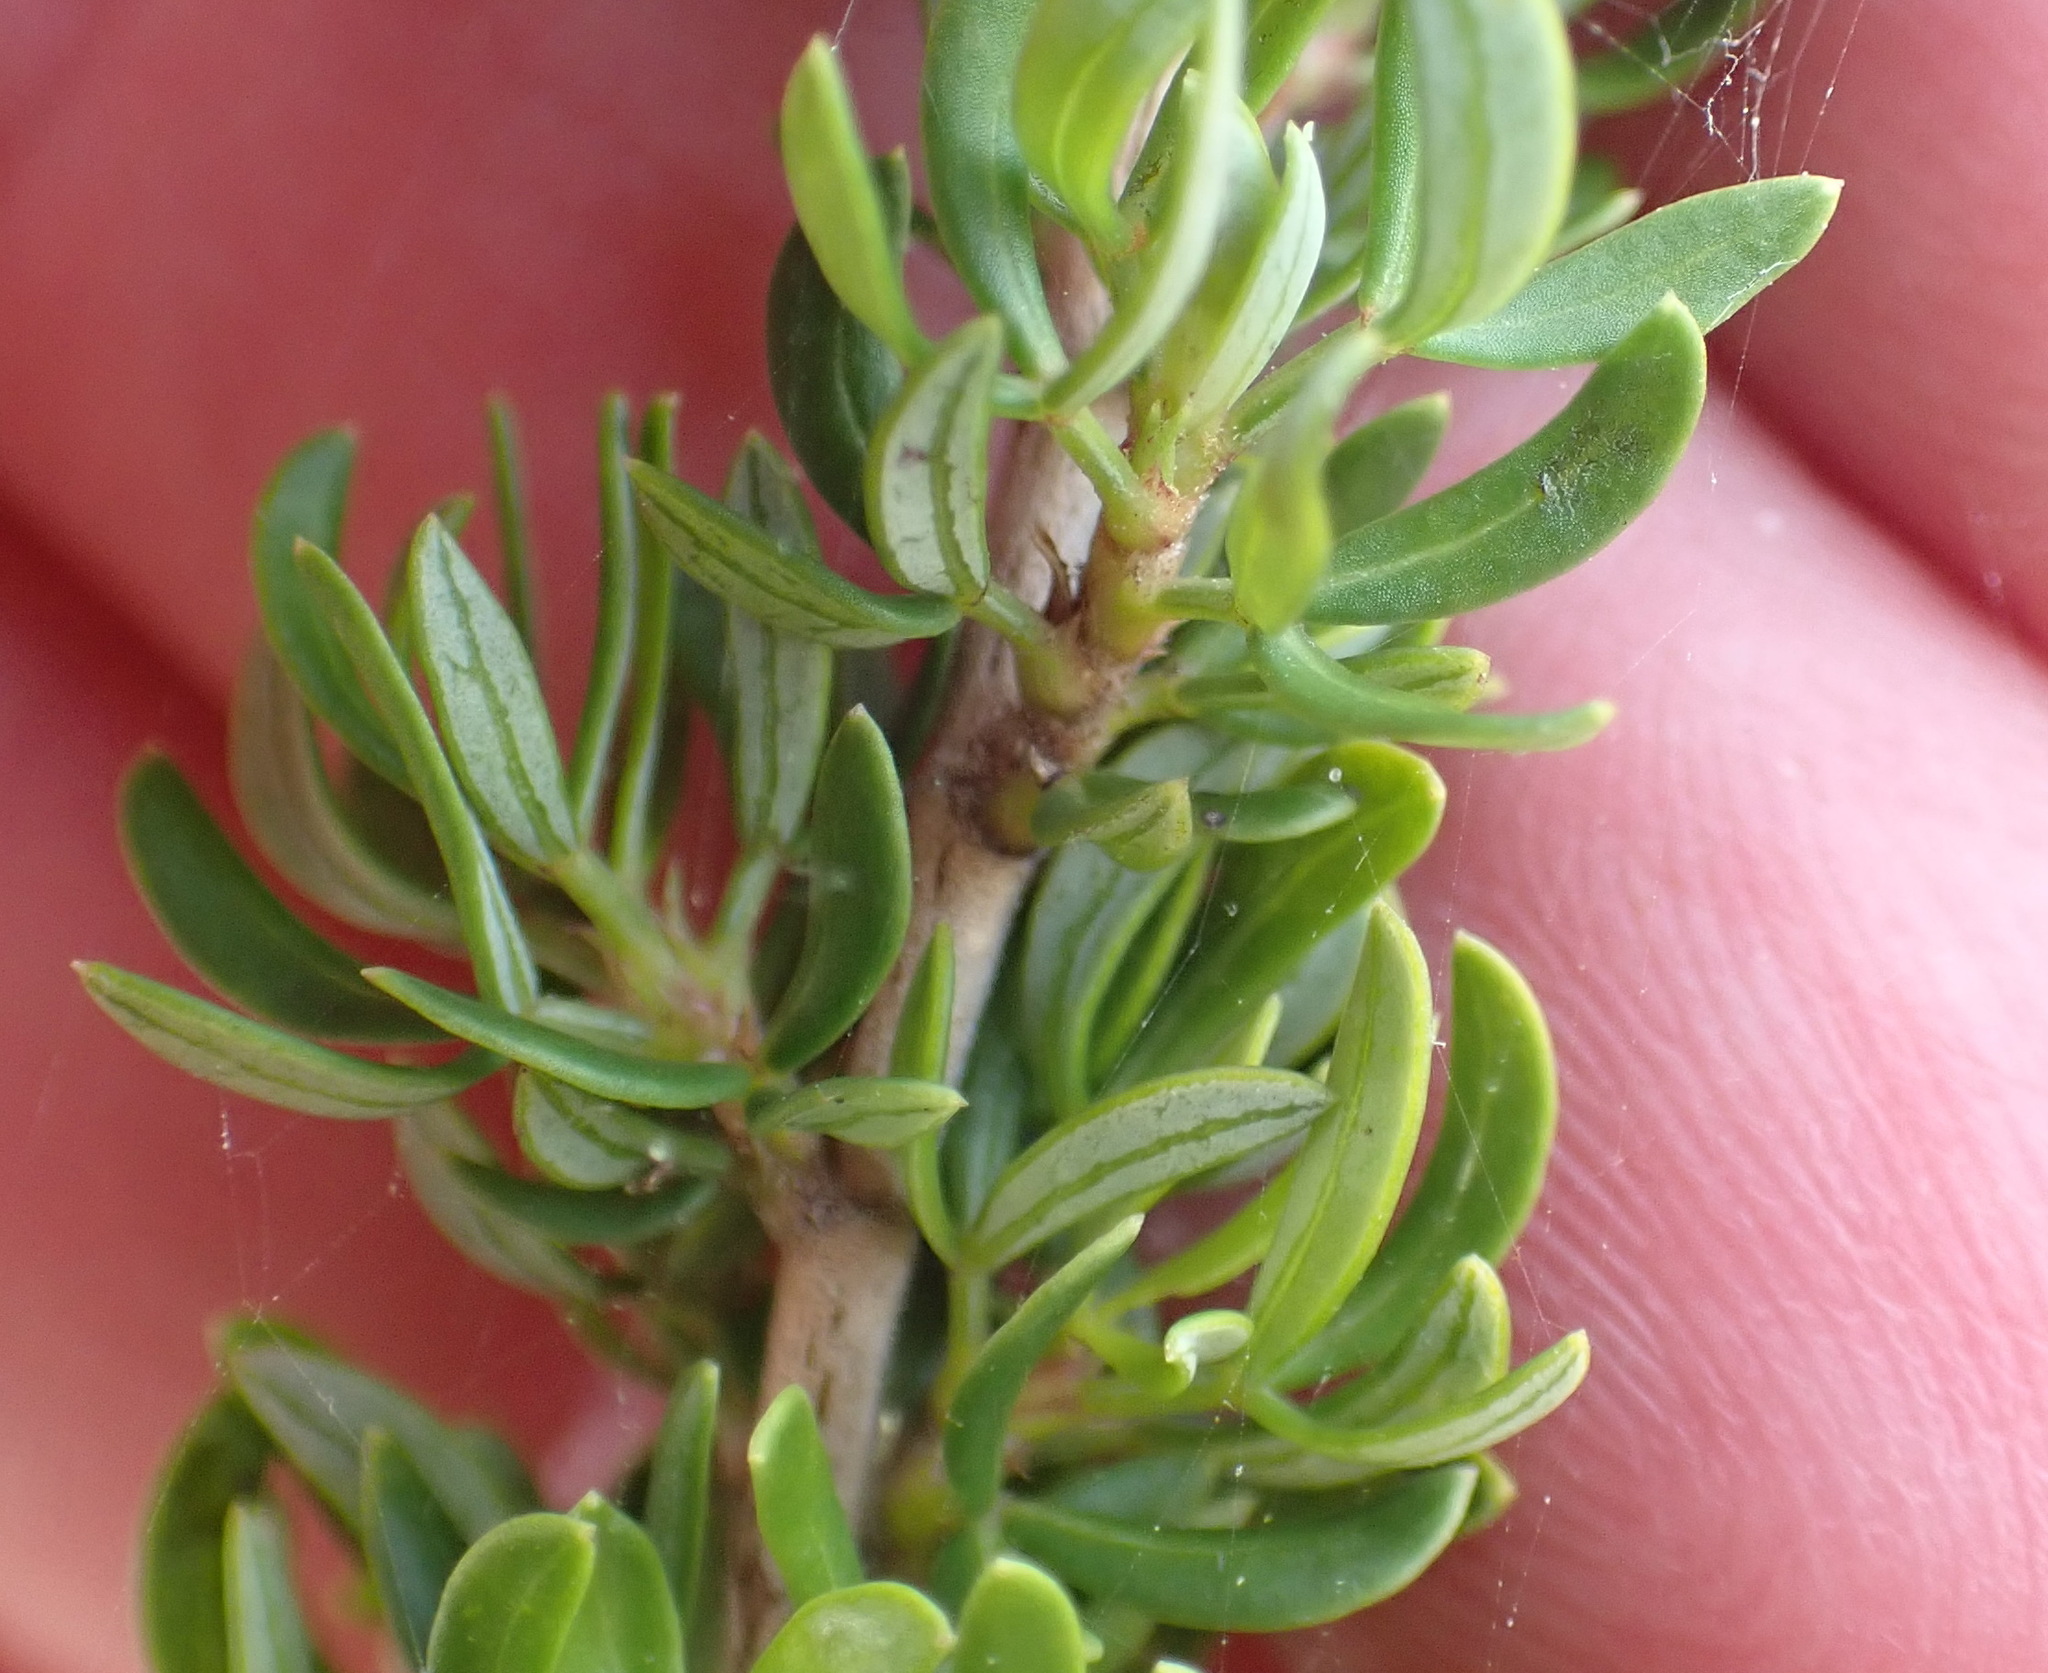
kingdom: Plantae
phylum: Tracheophyta
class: Magnoliopsida
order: Rosales
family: Rosaceae
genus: Cliffortia
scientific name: Cliffortia falcata
